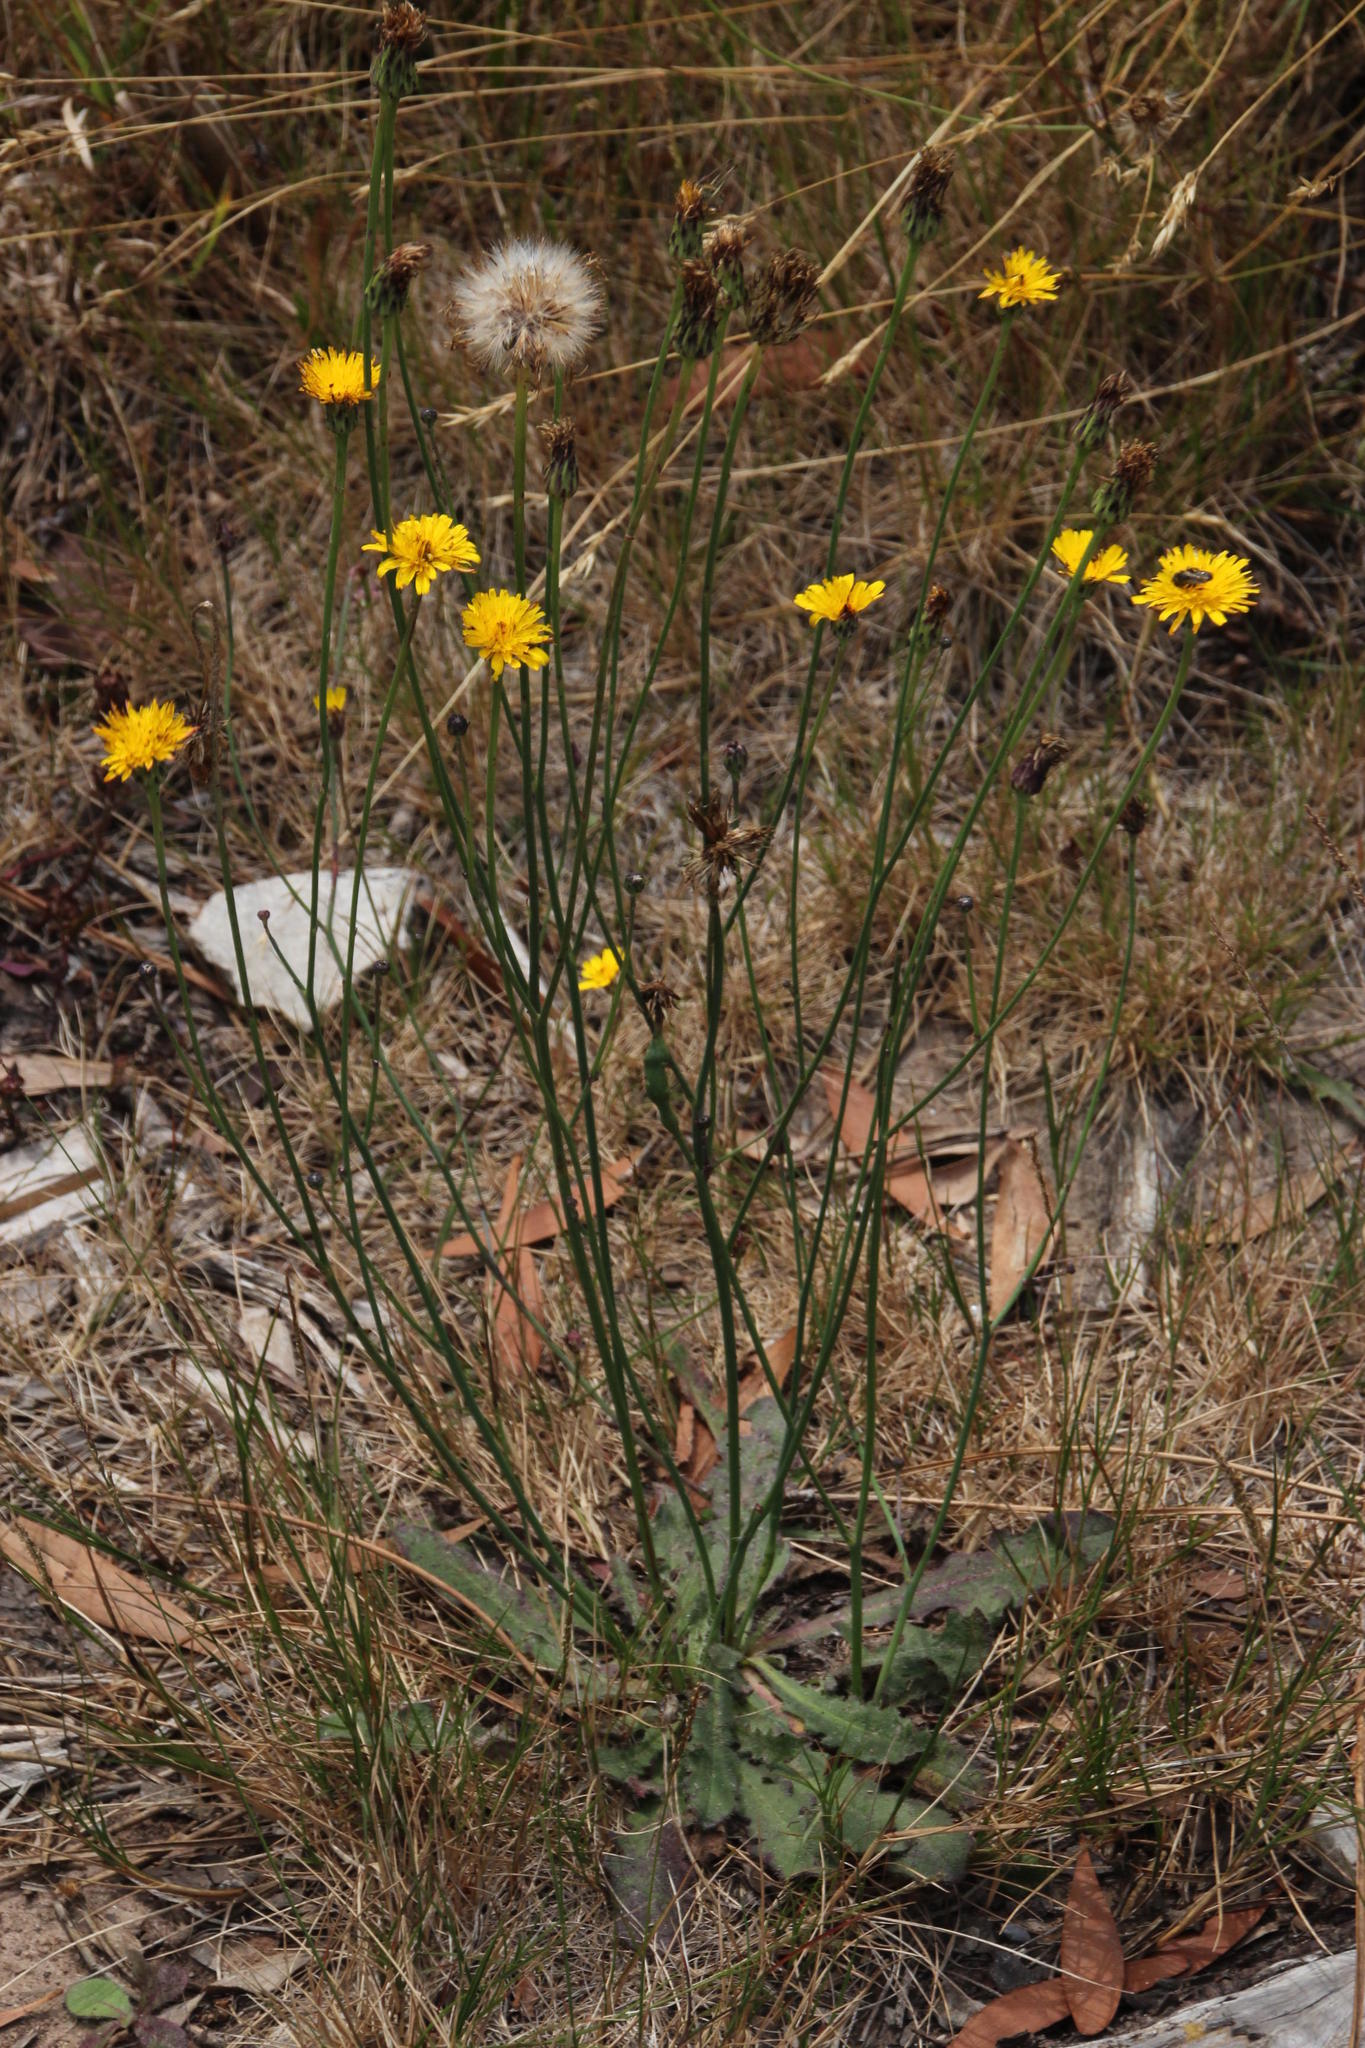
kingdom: Plantae
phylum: Tracheophyta
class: Magnoliopsida
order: Asterales
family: Asteraceae
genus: Hypochaeris
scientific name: Hypochaeris radicata
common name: Flatweed
